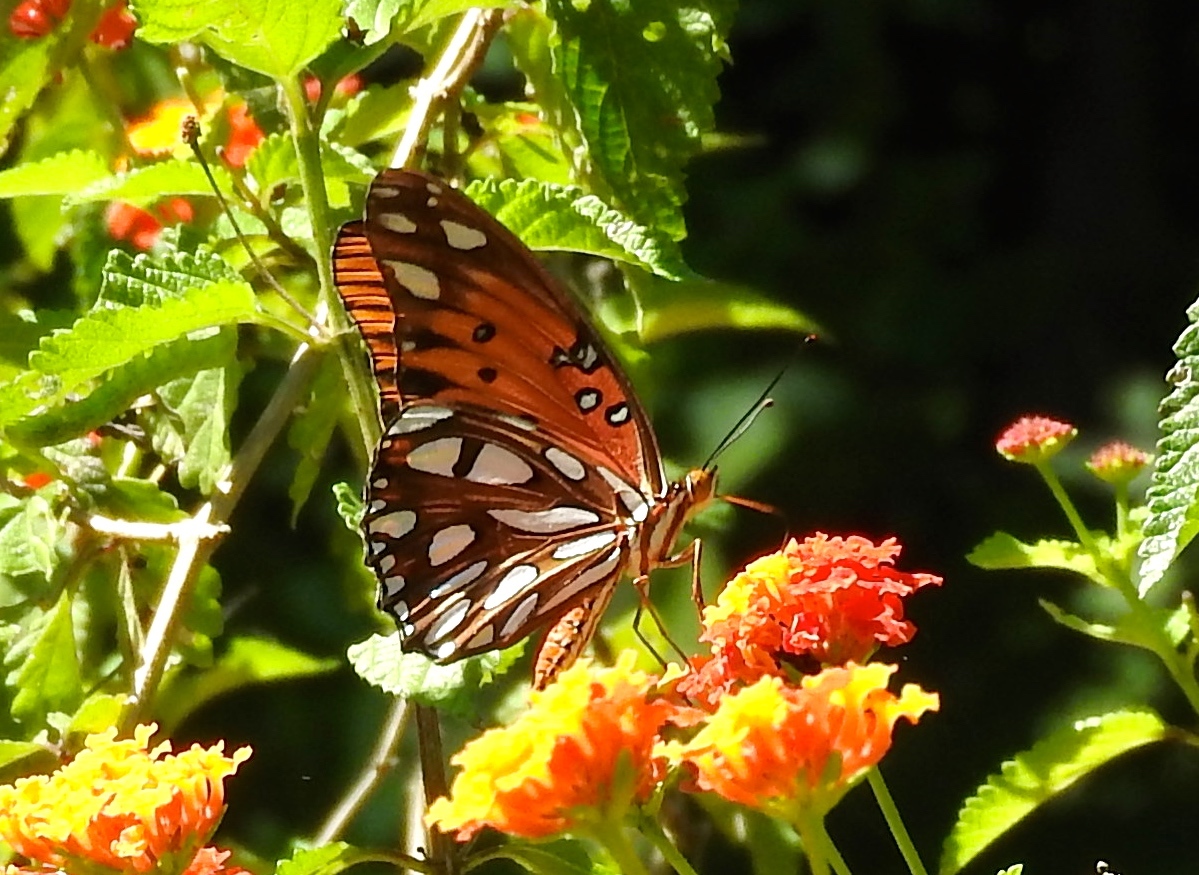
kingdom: Animalia
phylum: Arthropoda
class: Insecta
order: Lepidoptera
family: Nymphalidae
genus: Dione
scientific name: Dione vanillae
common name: Gulf fritillary
